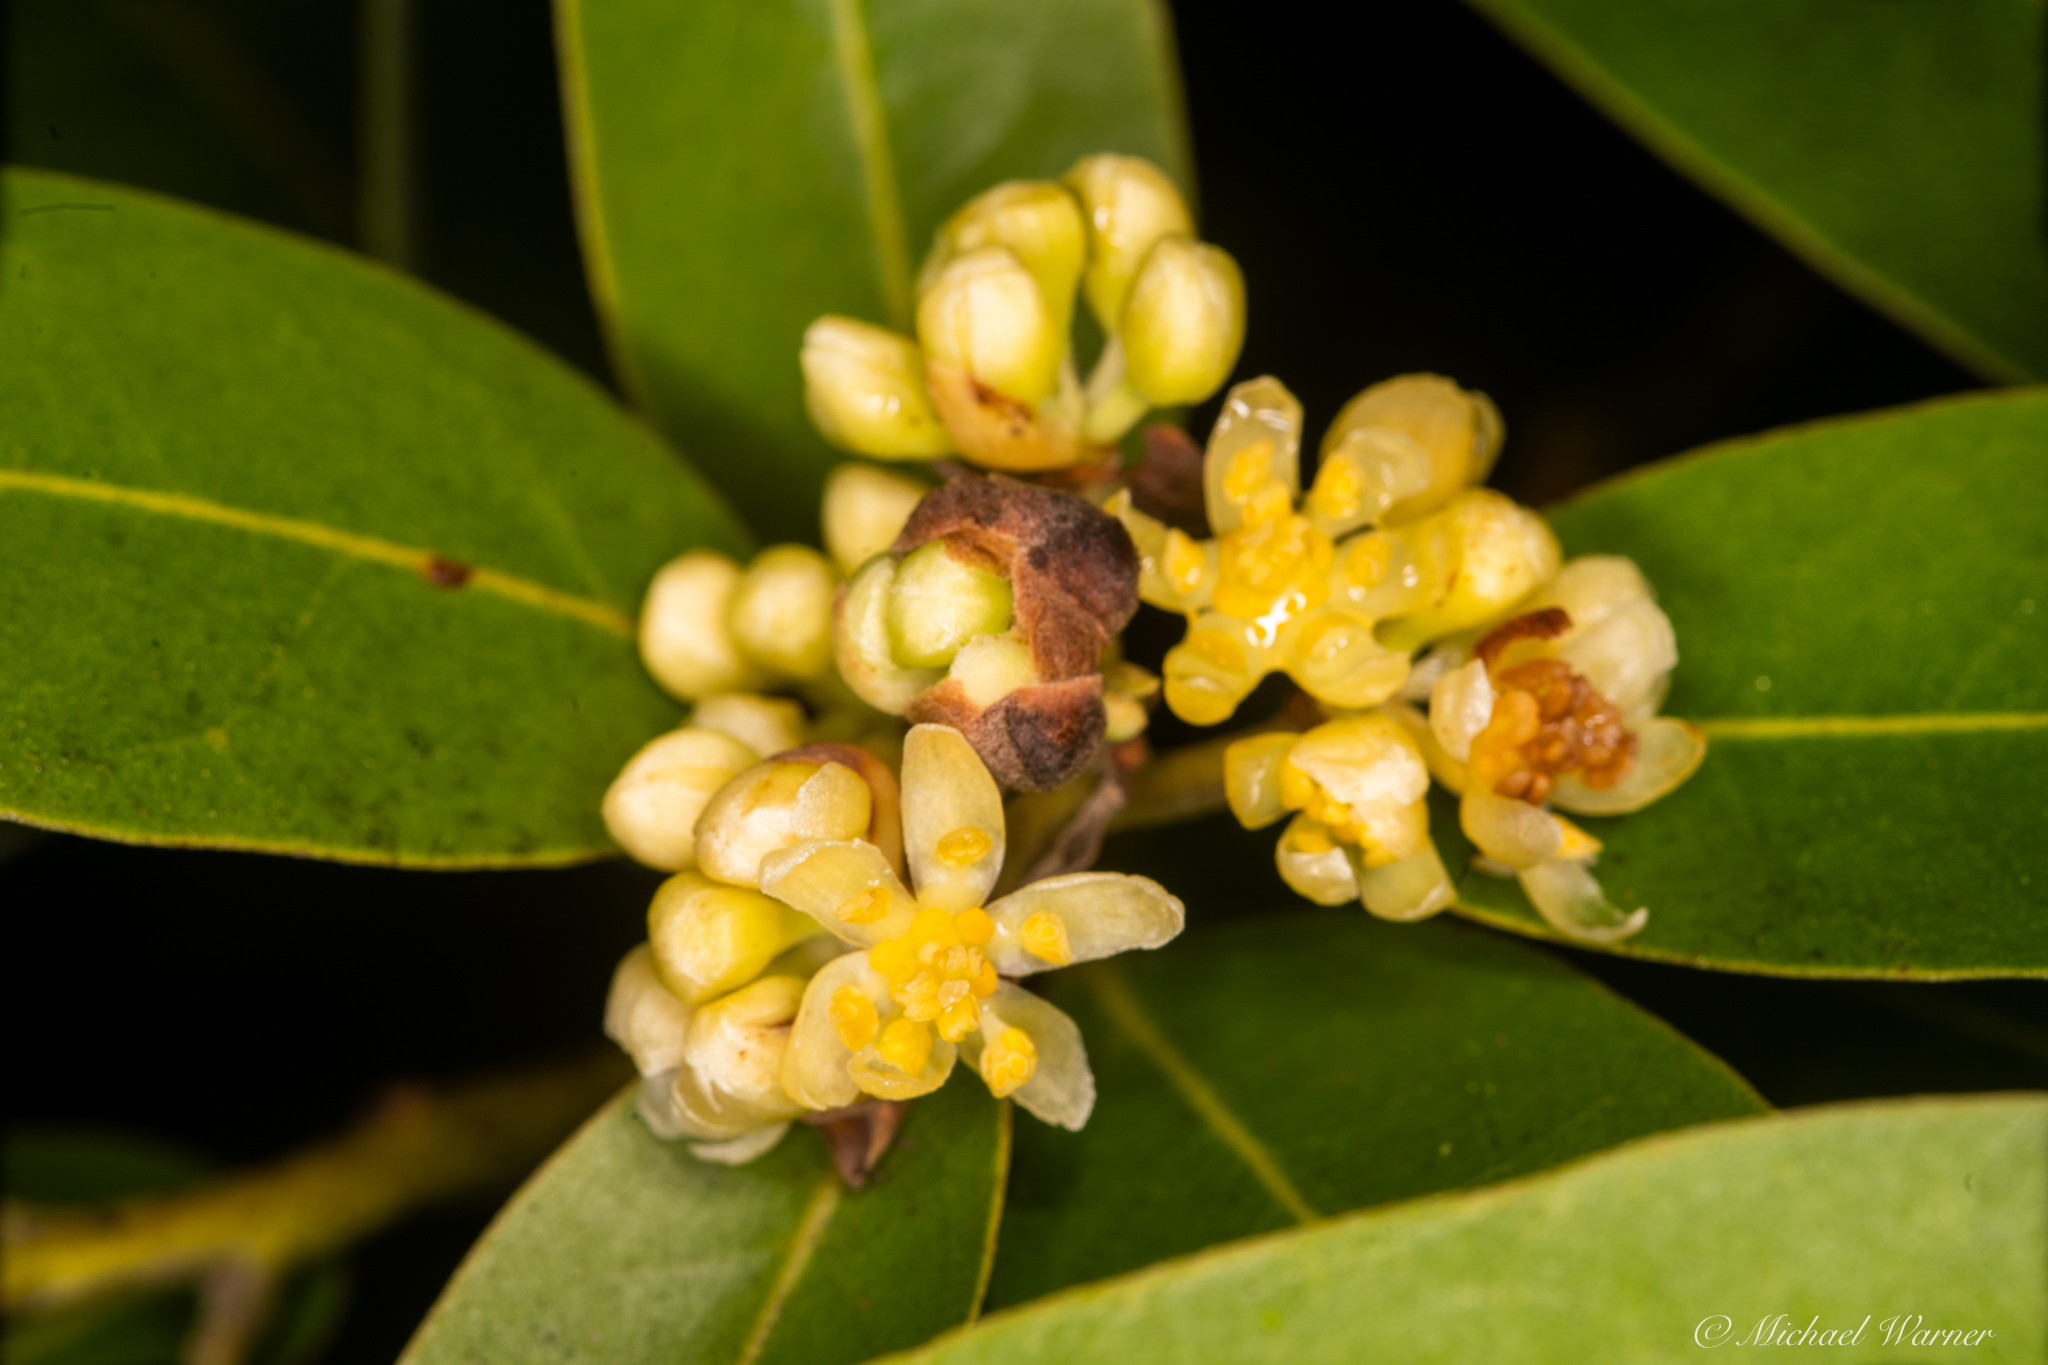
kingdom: Plantae
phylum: Tracheophyta
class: Magnoliopsida
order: Laurales
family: Lauraceae
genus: Umbellularia
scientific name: Umbellularia californica
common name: California bay
